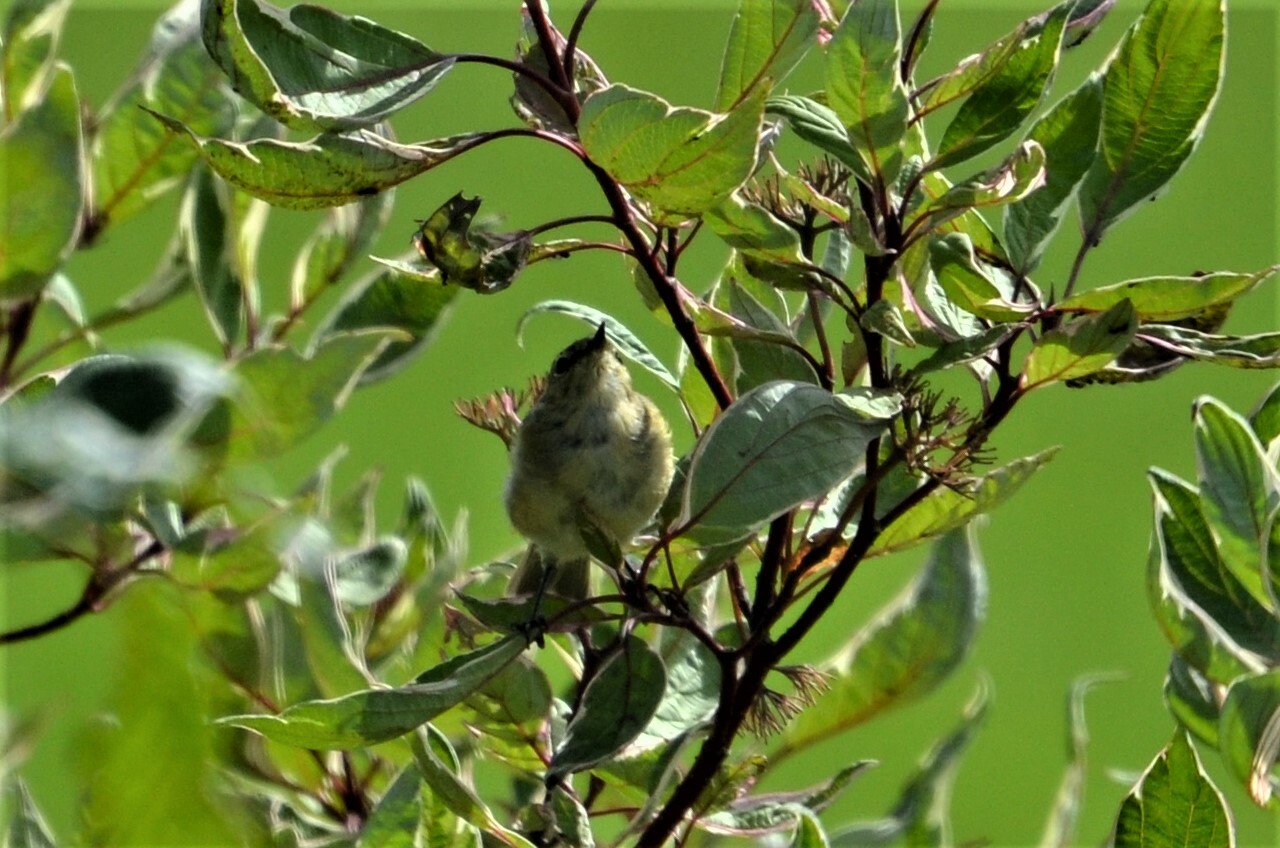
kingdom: Animalia
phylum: Chordata
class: Aves
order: Passeriformes
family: Phylloscopidae
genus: Phylloscopus
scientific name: Phylloscopus collybita
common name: Common chiffchaff
